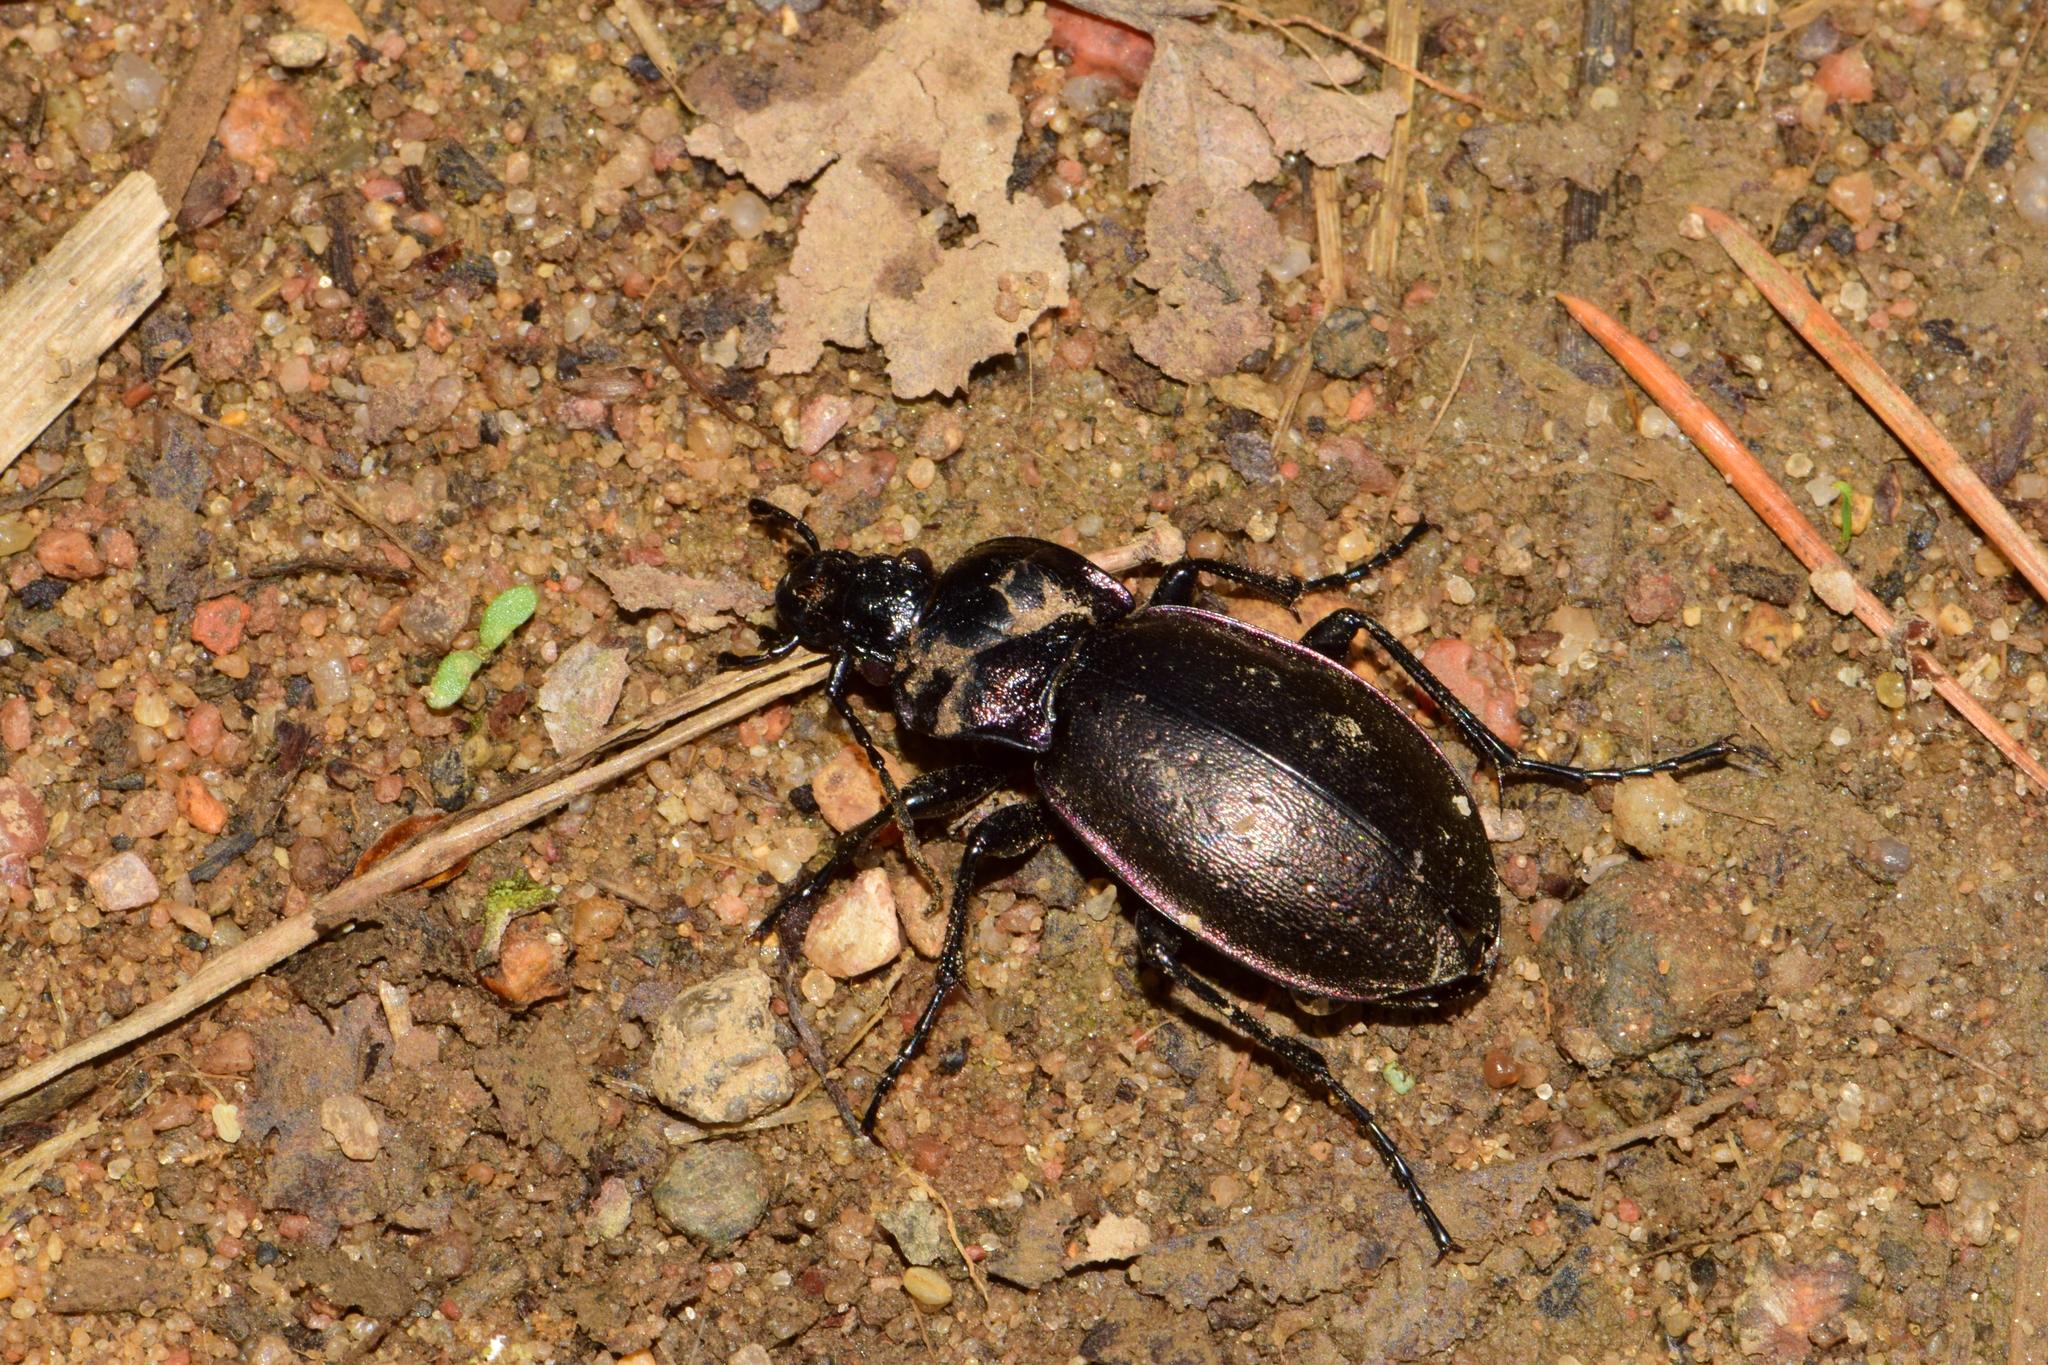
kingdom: Animalia
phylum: Arthropoda
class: Insecta
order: Coleoptera
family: Carabidae
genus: Carabus
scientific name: Carabus nemoralis
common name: European ground beetle
